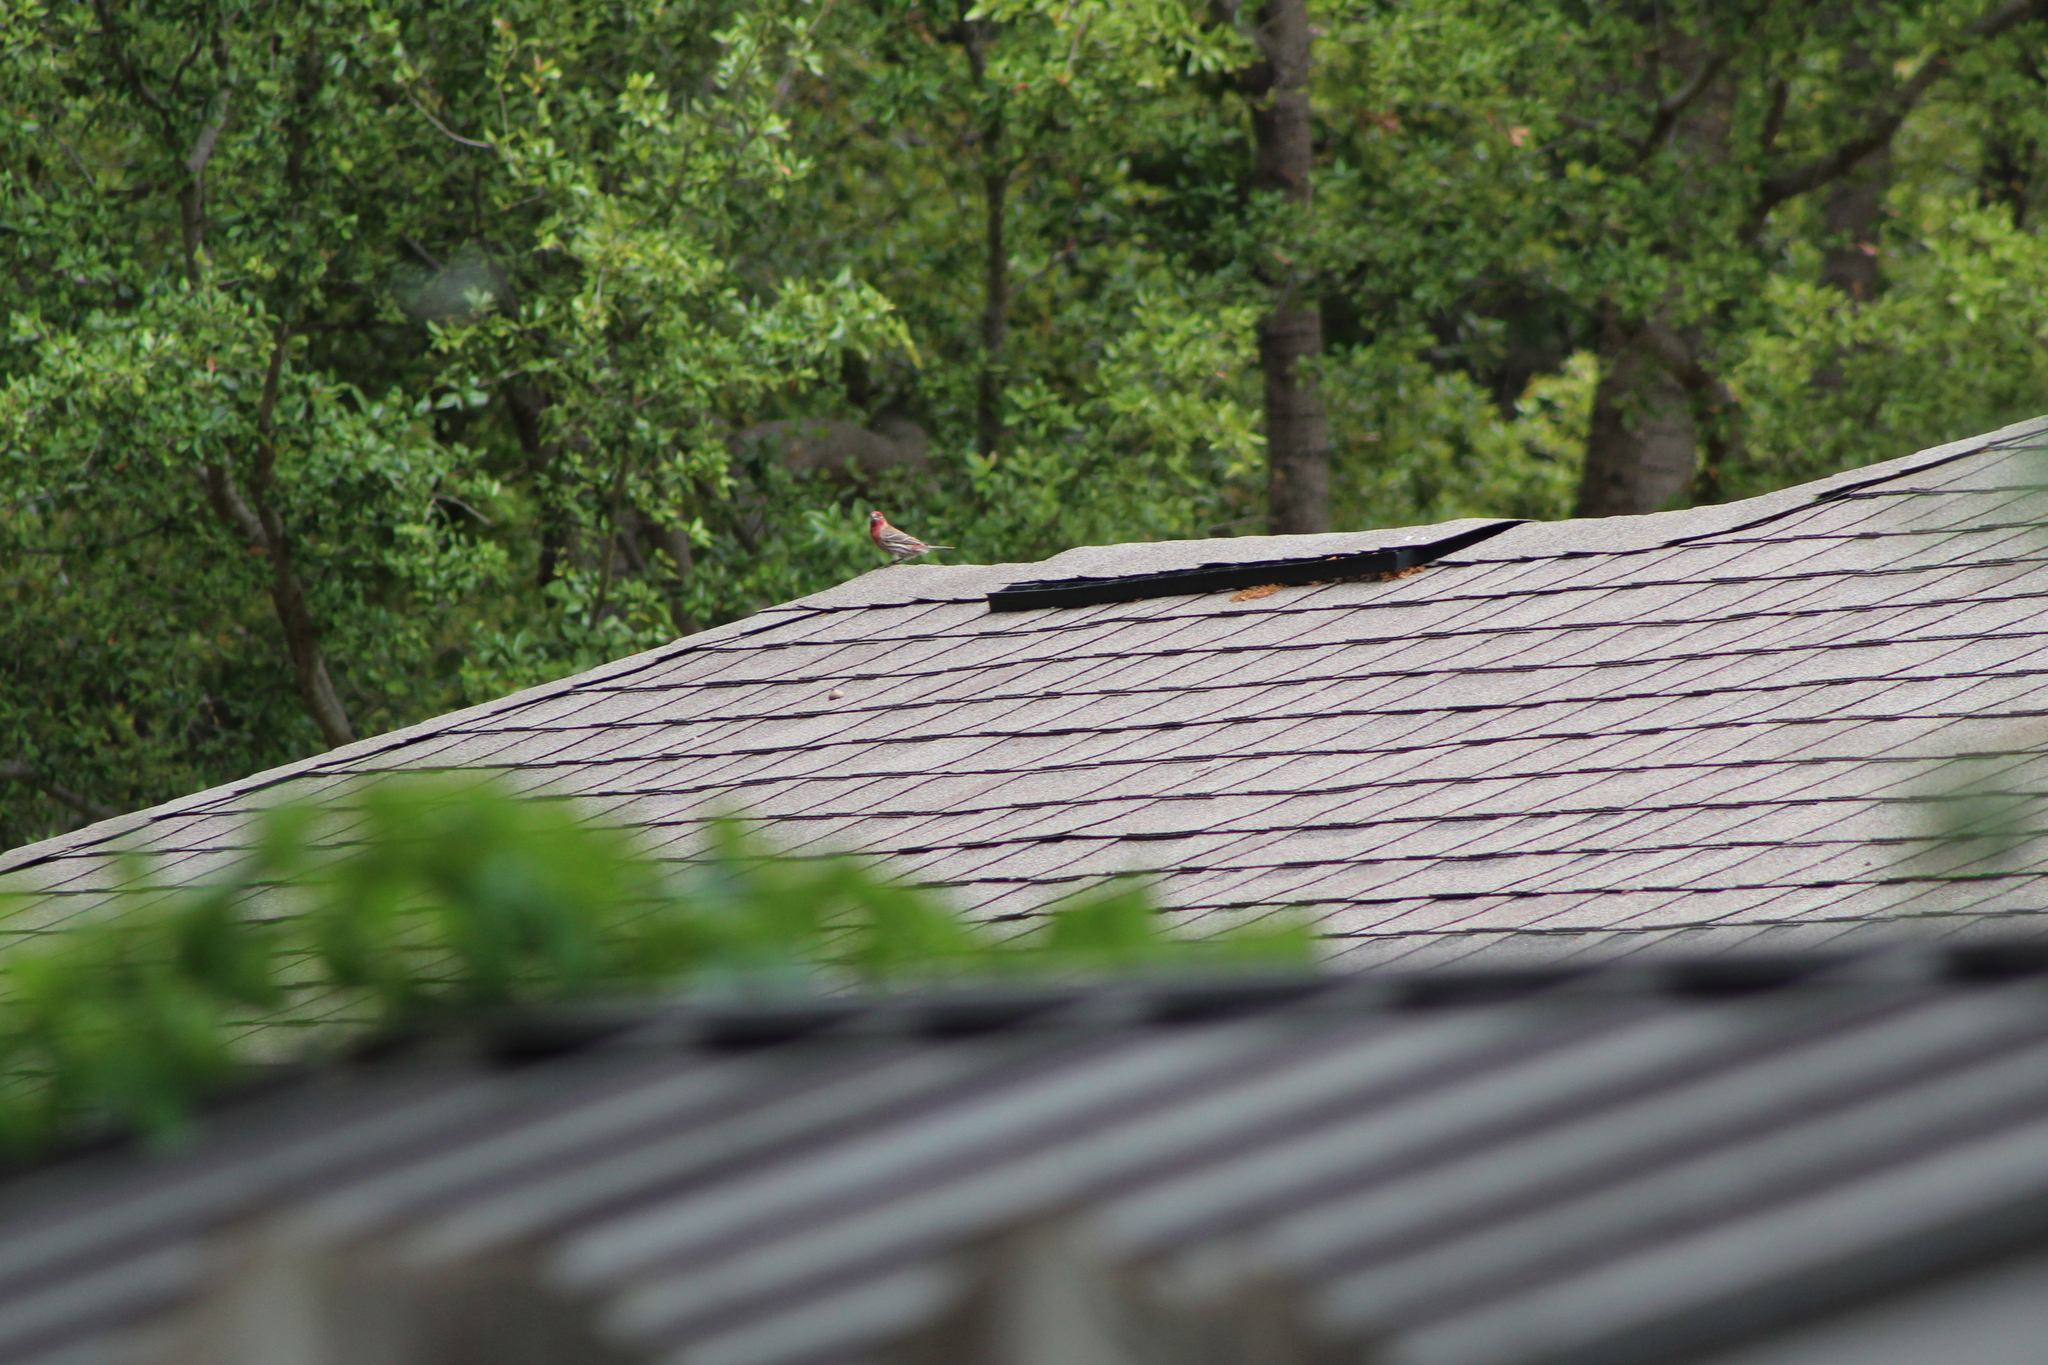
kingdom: Animalia
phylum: Chordata
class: Aves
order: Passeriformes
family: Fringillidae
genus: Haemorhous
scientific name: Haemorhous mexicanus
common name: House finch
